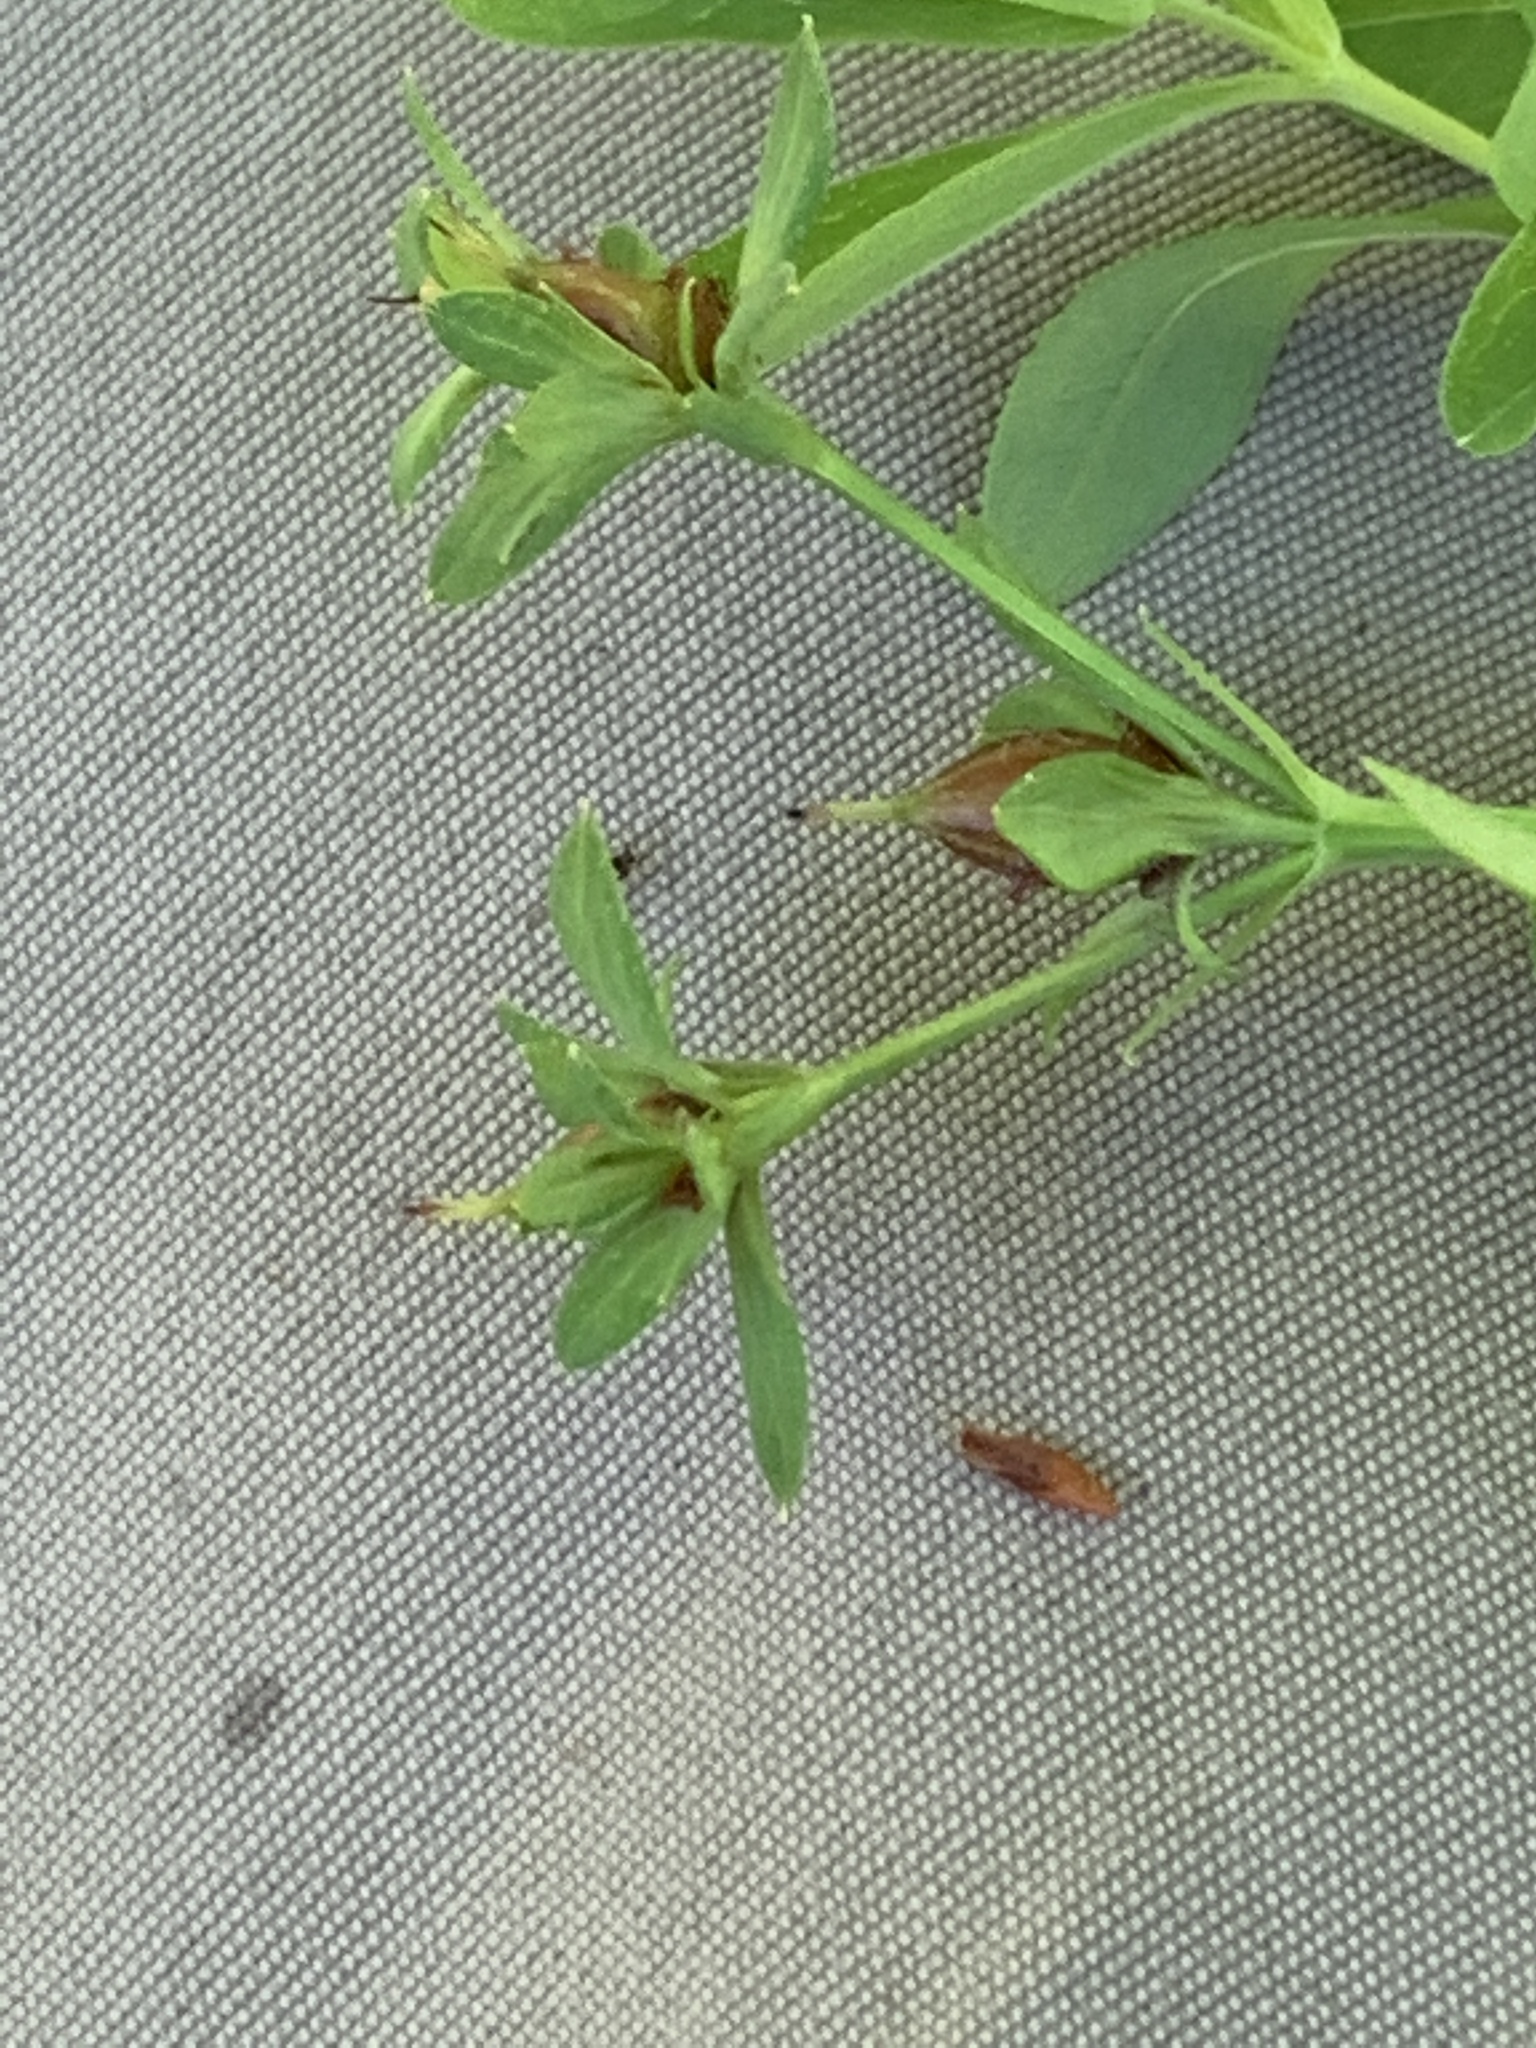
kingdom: Plantae
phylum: Tracheophyta
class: Magnoliopsida
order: Malpighiales
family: Hypericaceae
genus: Hypericum
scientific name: Hypericum ellipticum
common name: Elliptic st. john's-wort
